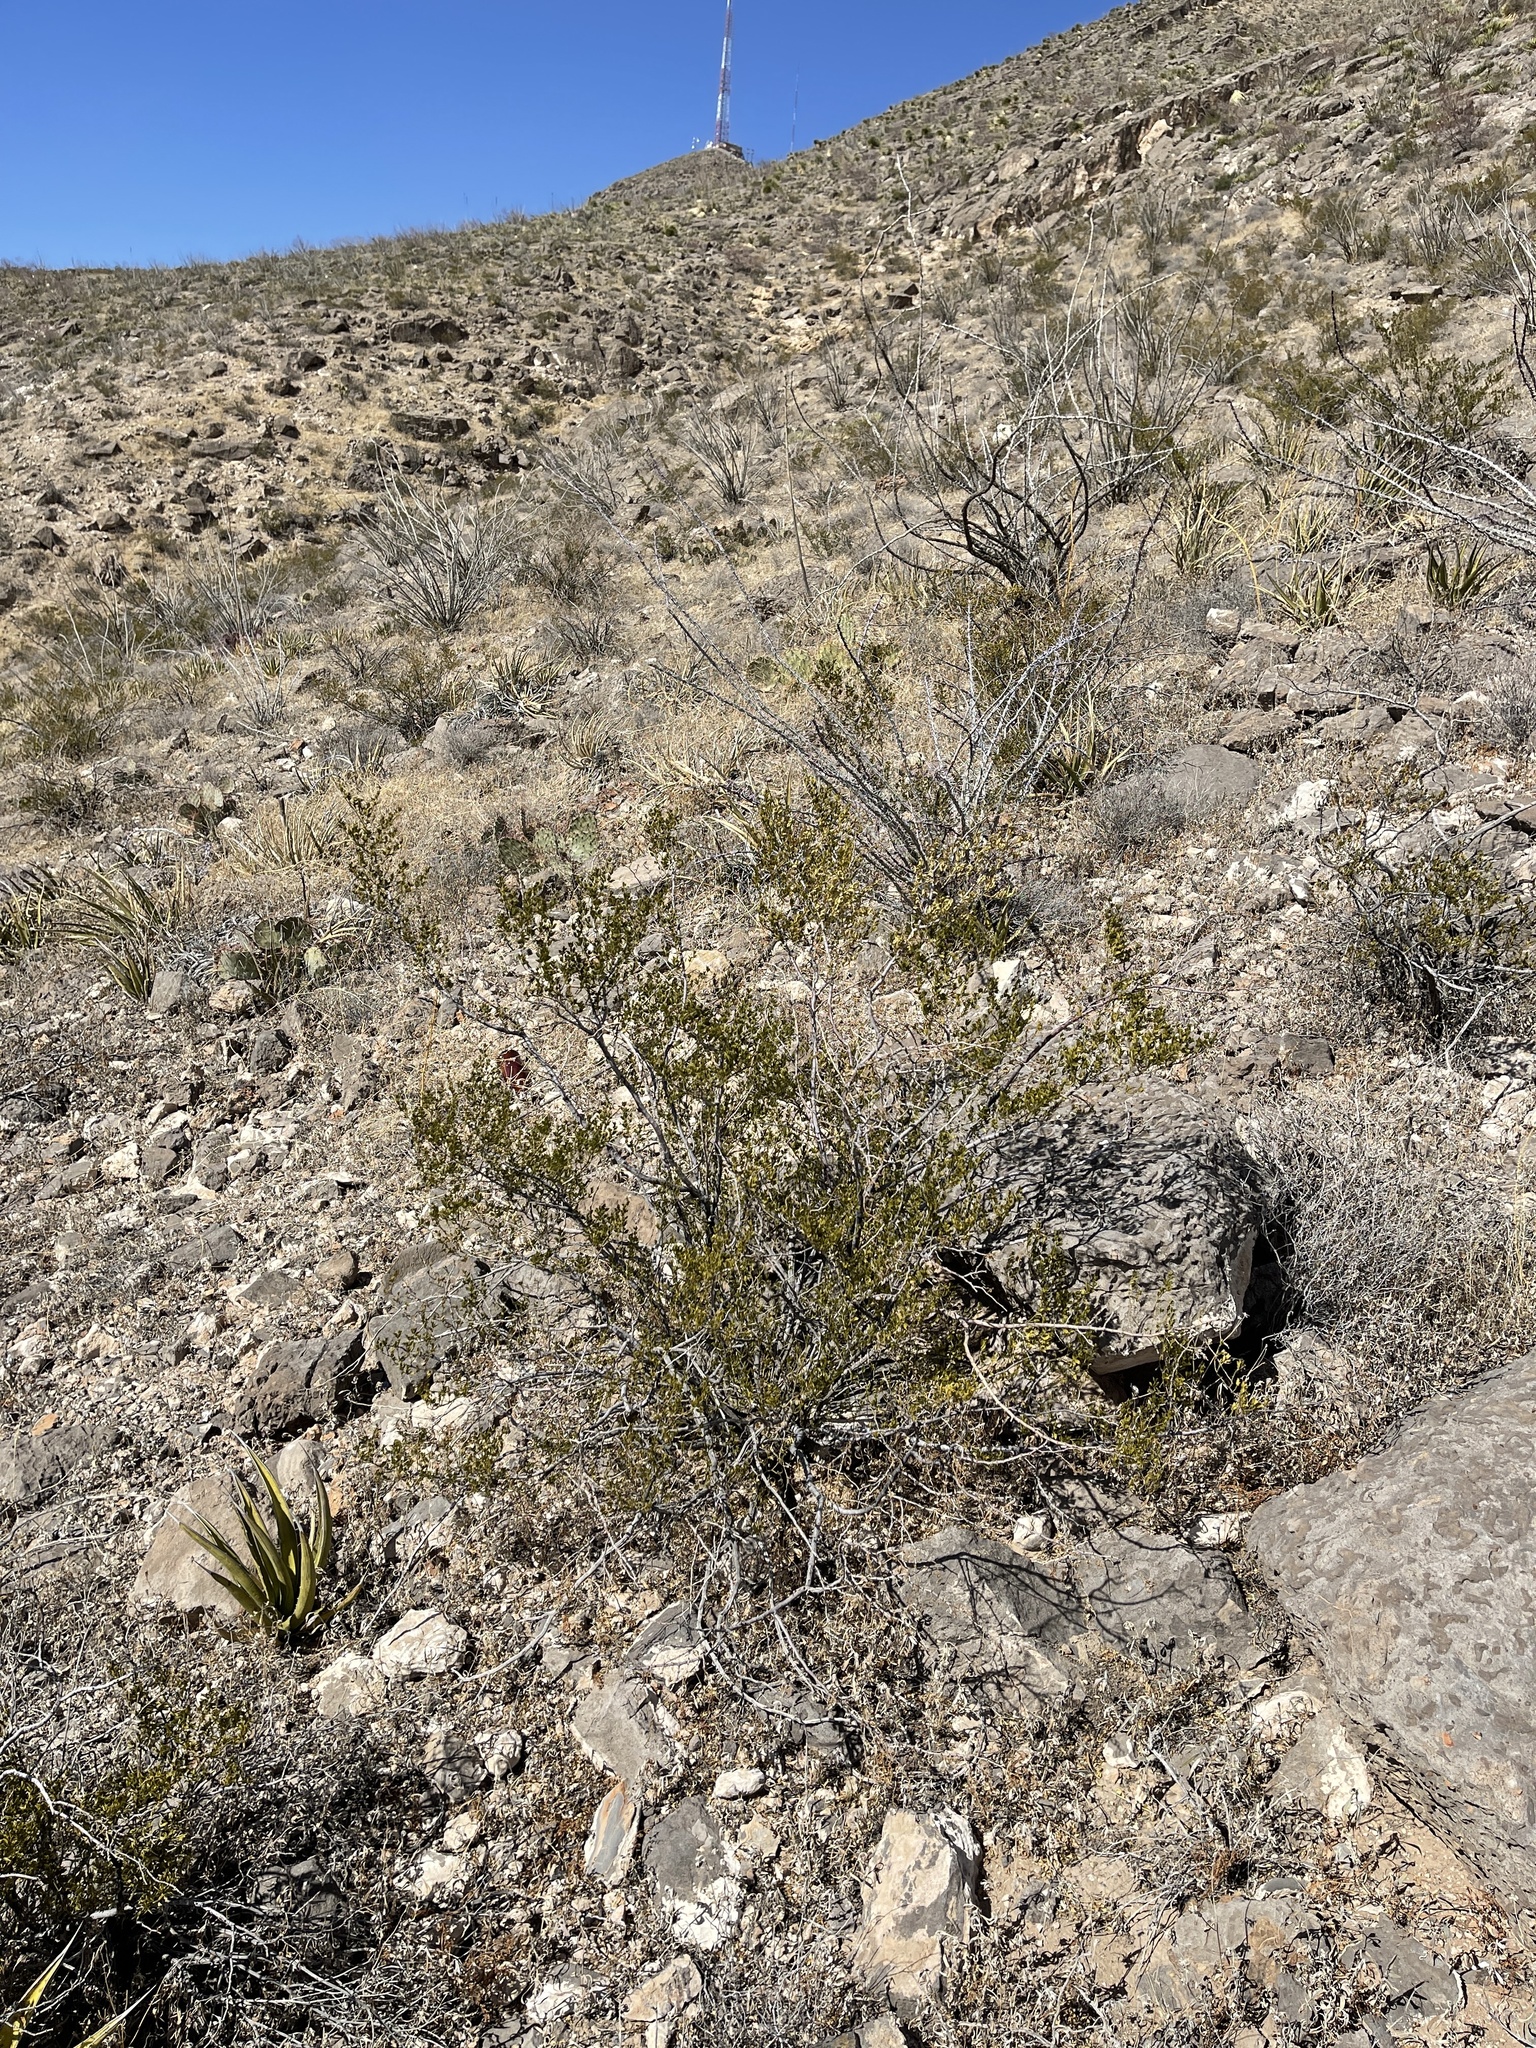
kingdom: Plantae
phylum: Tracheophyta
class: Magnoliopsida
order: Zygophyllales
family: Zygophyllaceae
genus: Larrea
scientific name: Larrea tridentata
